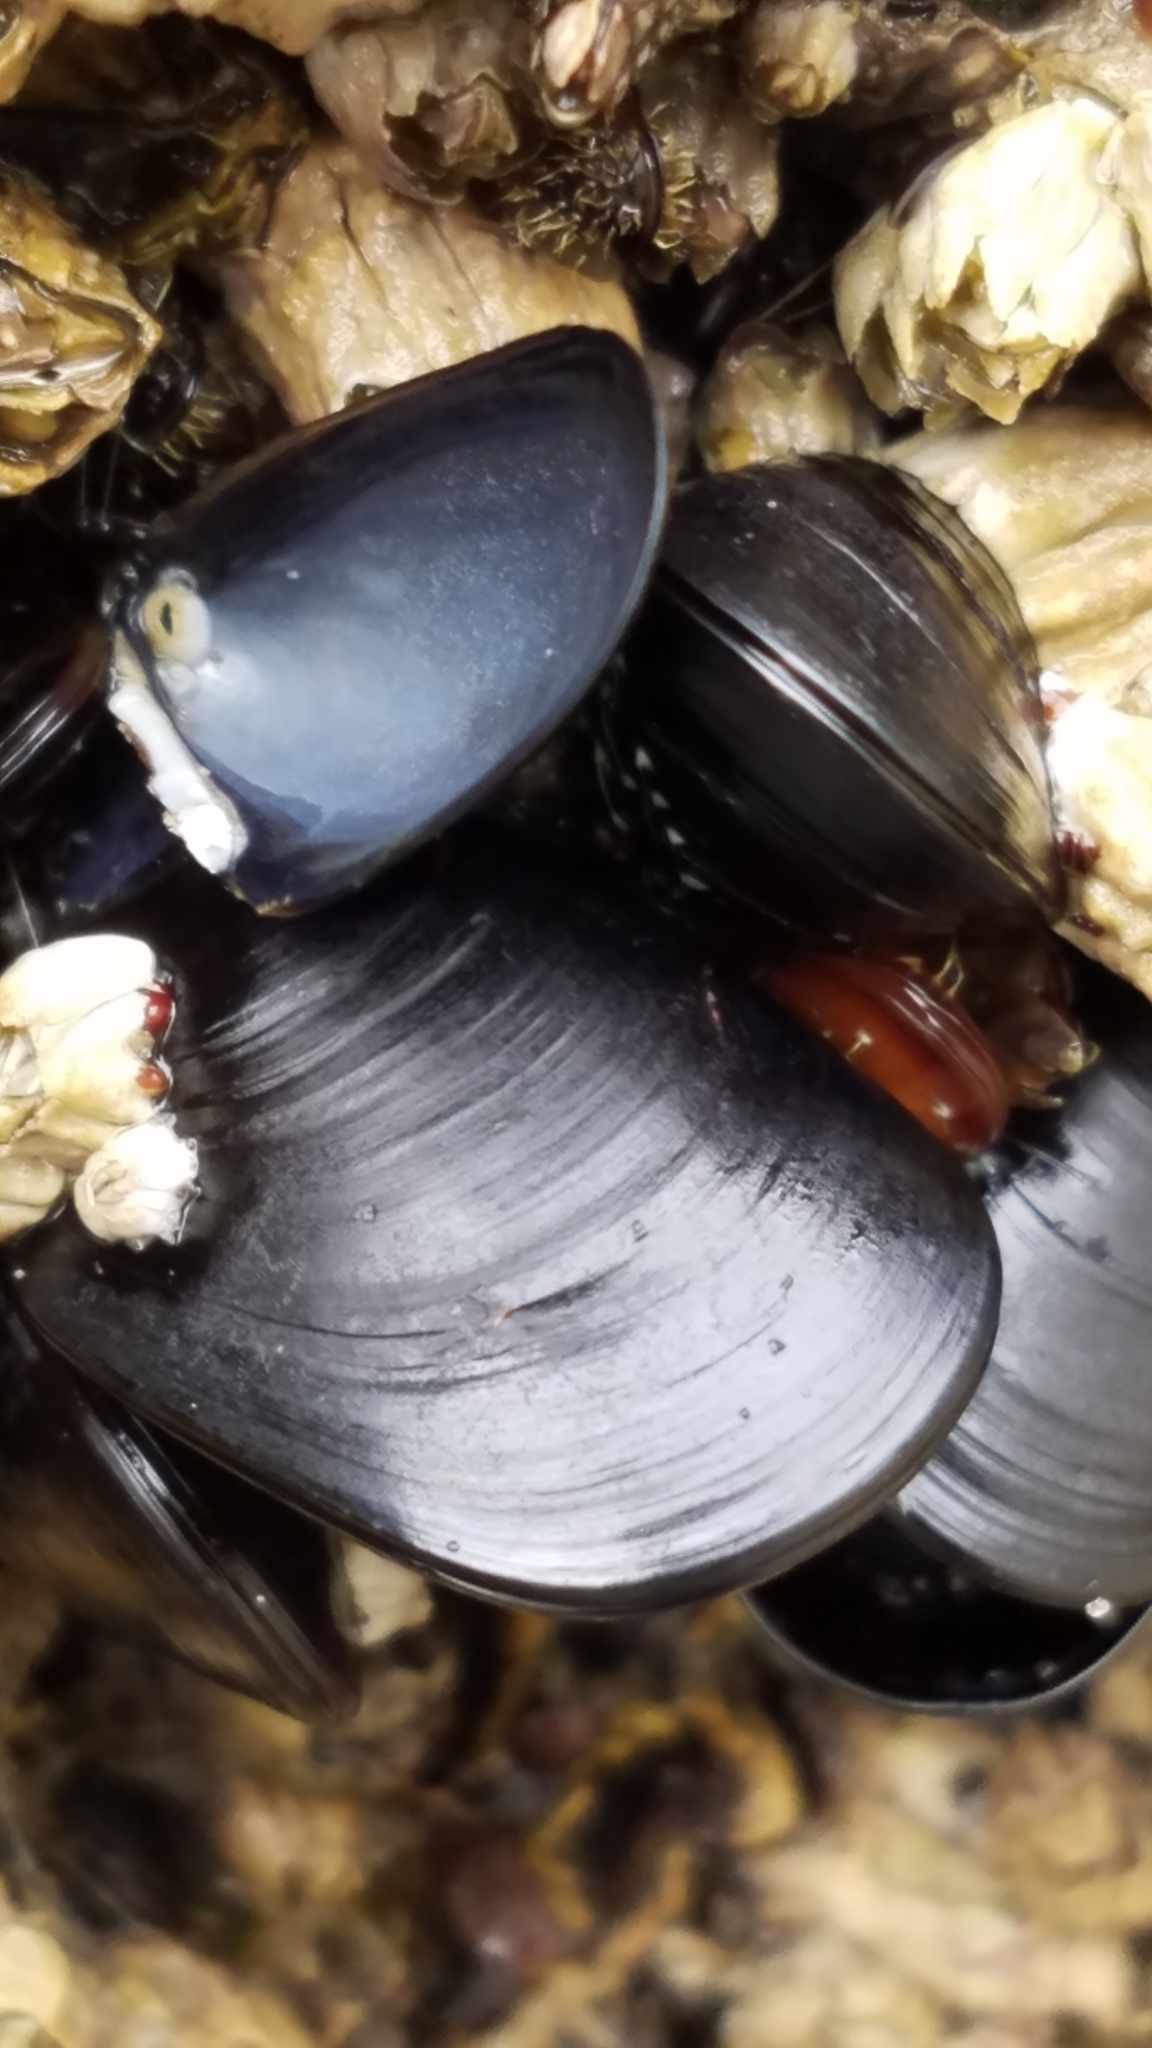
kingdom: Animalia
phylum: Mollusca
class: Bivalvia
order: Mytilida
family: Mytilidae
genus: Mytilus
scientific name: Mytilus trossulus
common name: Northern blue mussel
